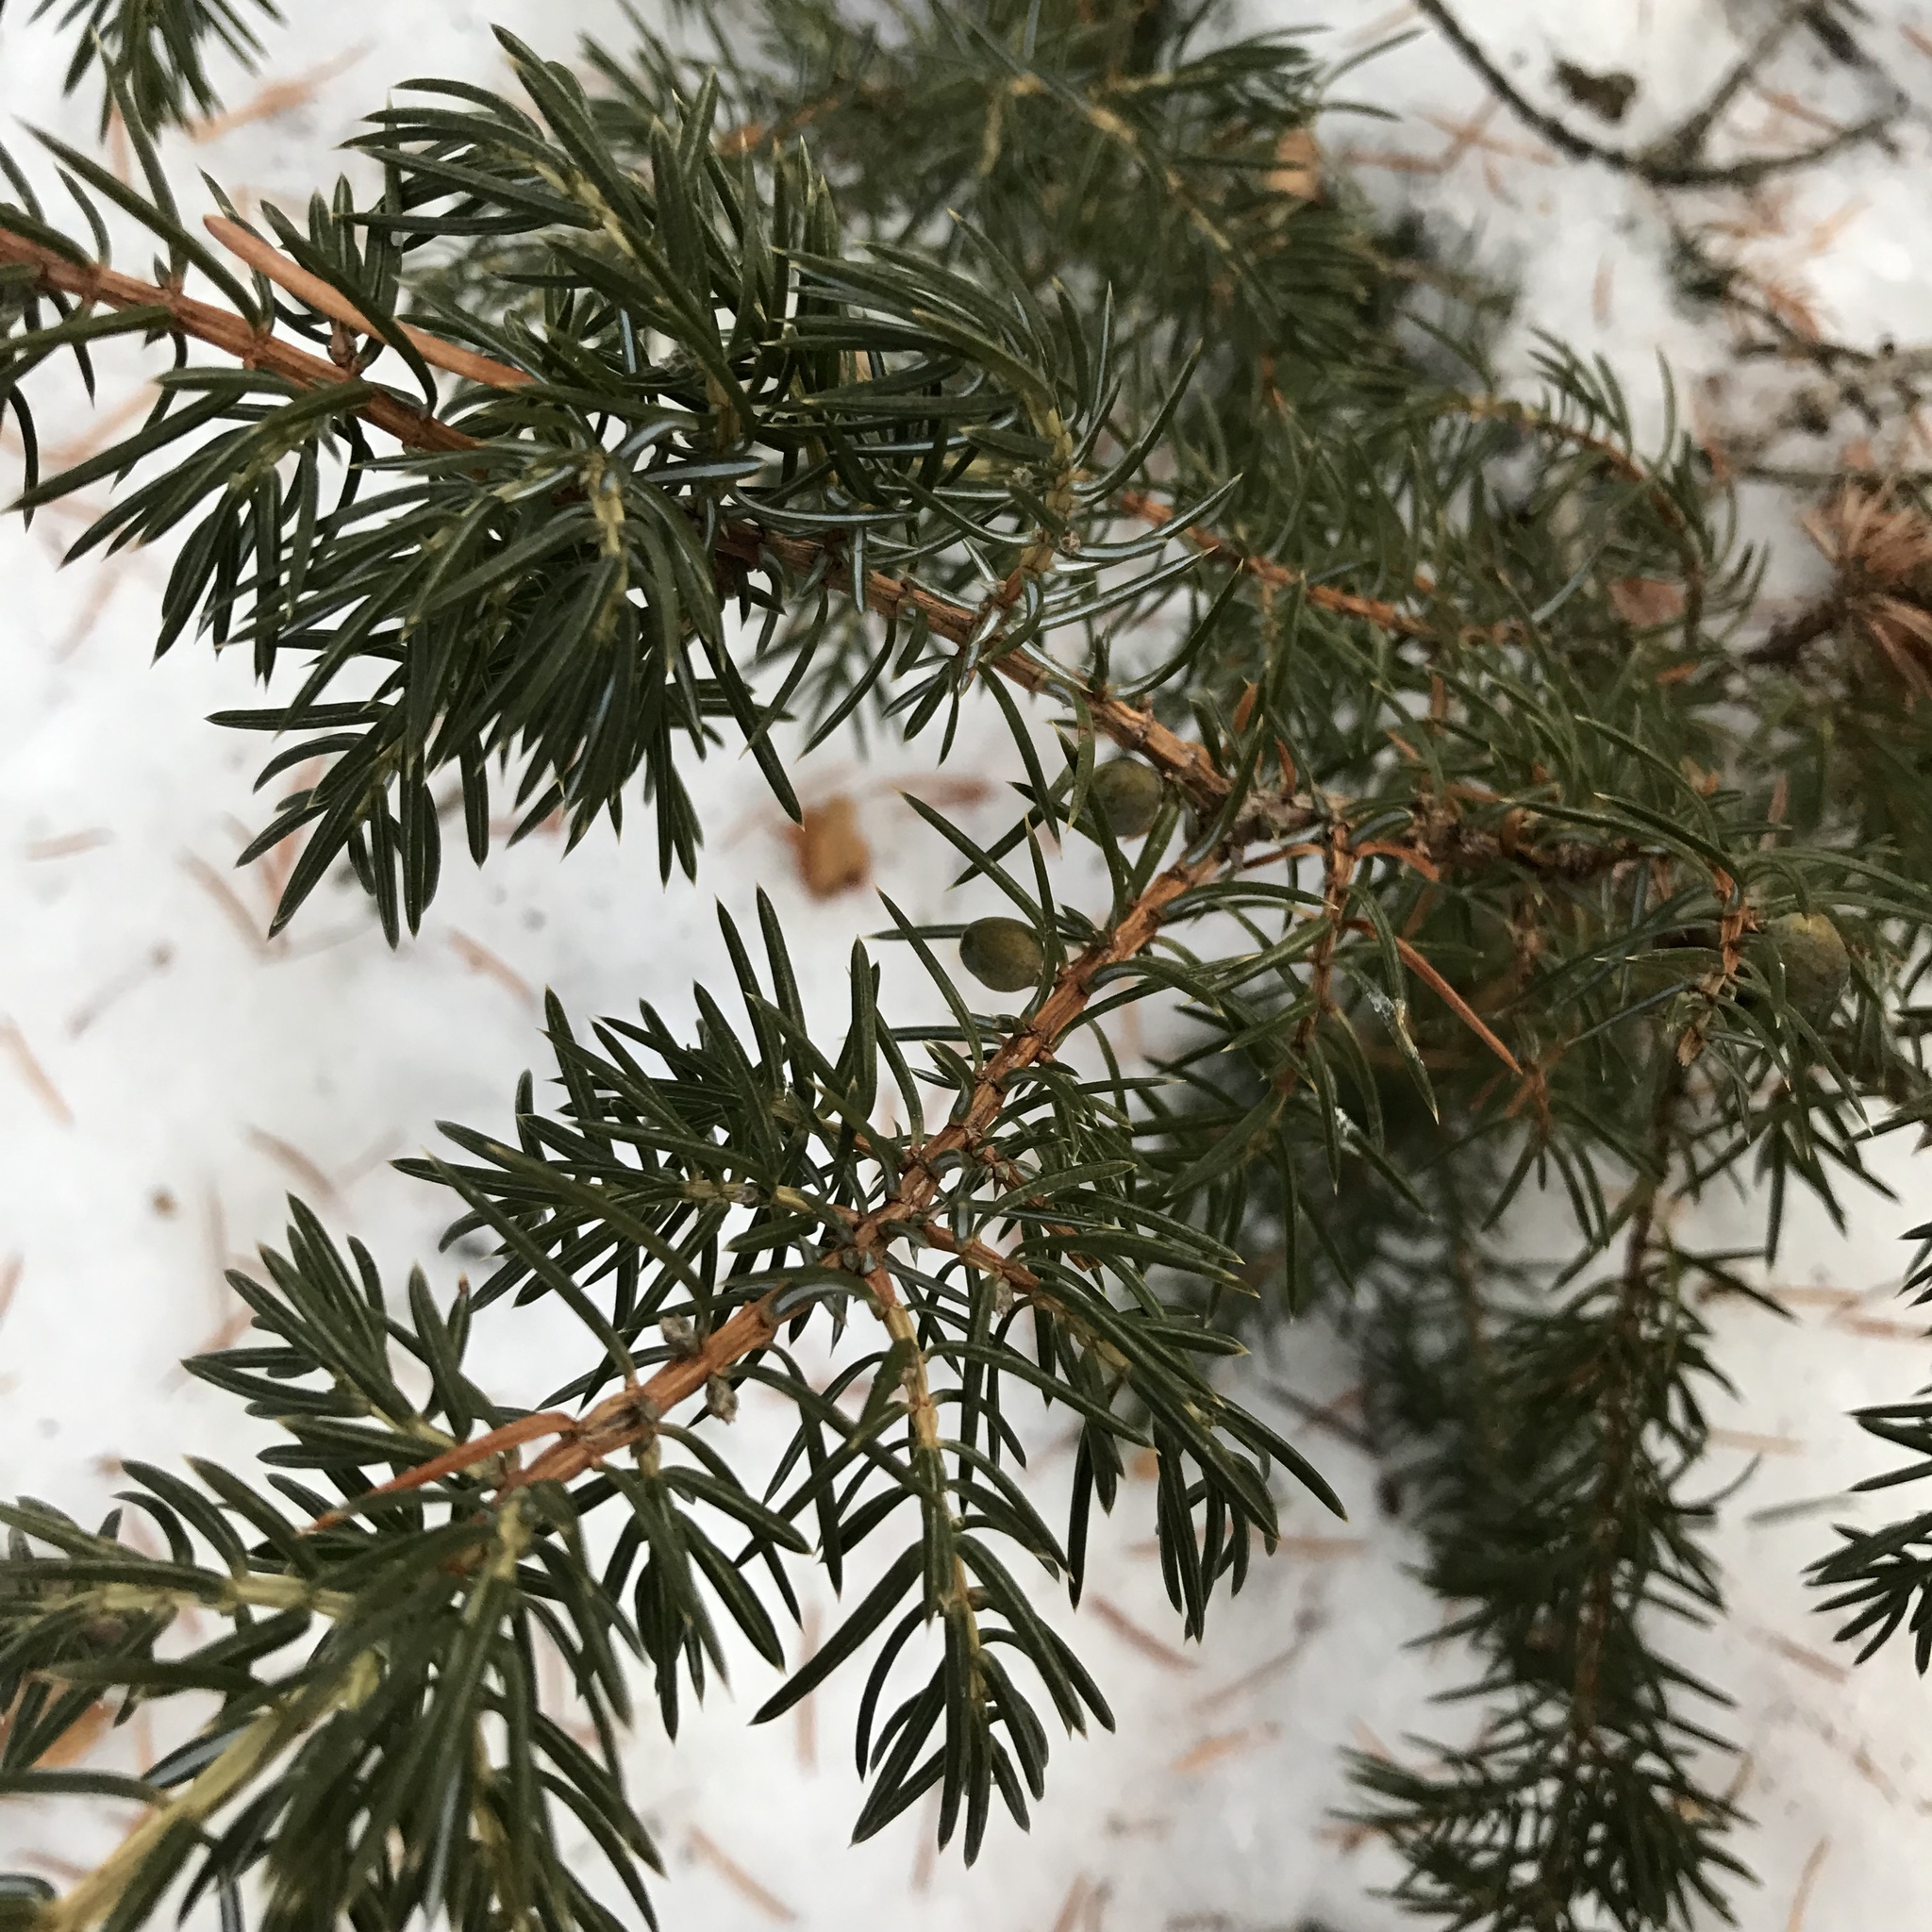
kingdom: Plantae
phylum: Tracheophyta
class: Pinopsida
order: Pinales
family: Cupressaceae
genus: Juniperus
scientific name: Juniperus communis
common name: Common juniper
